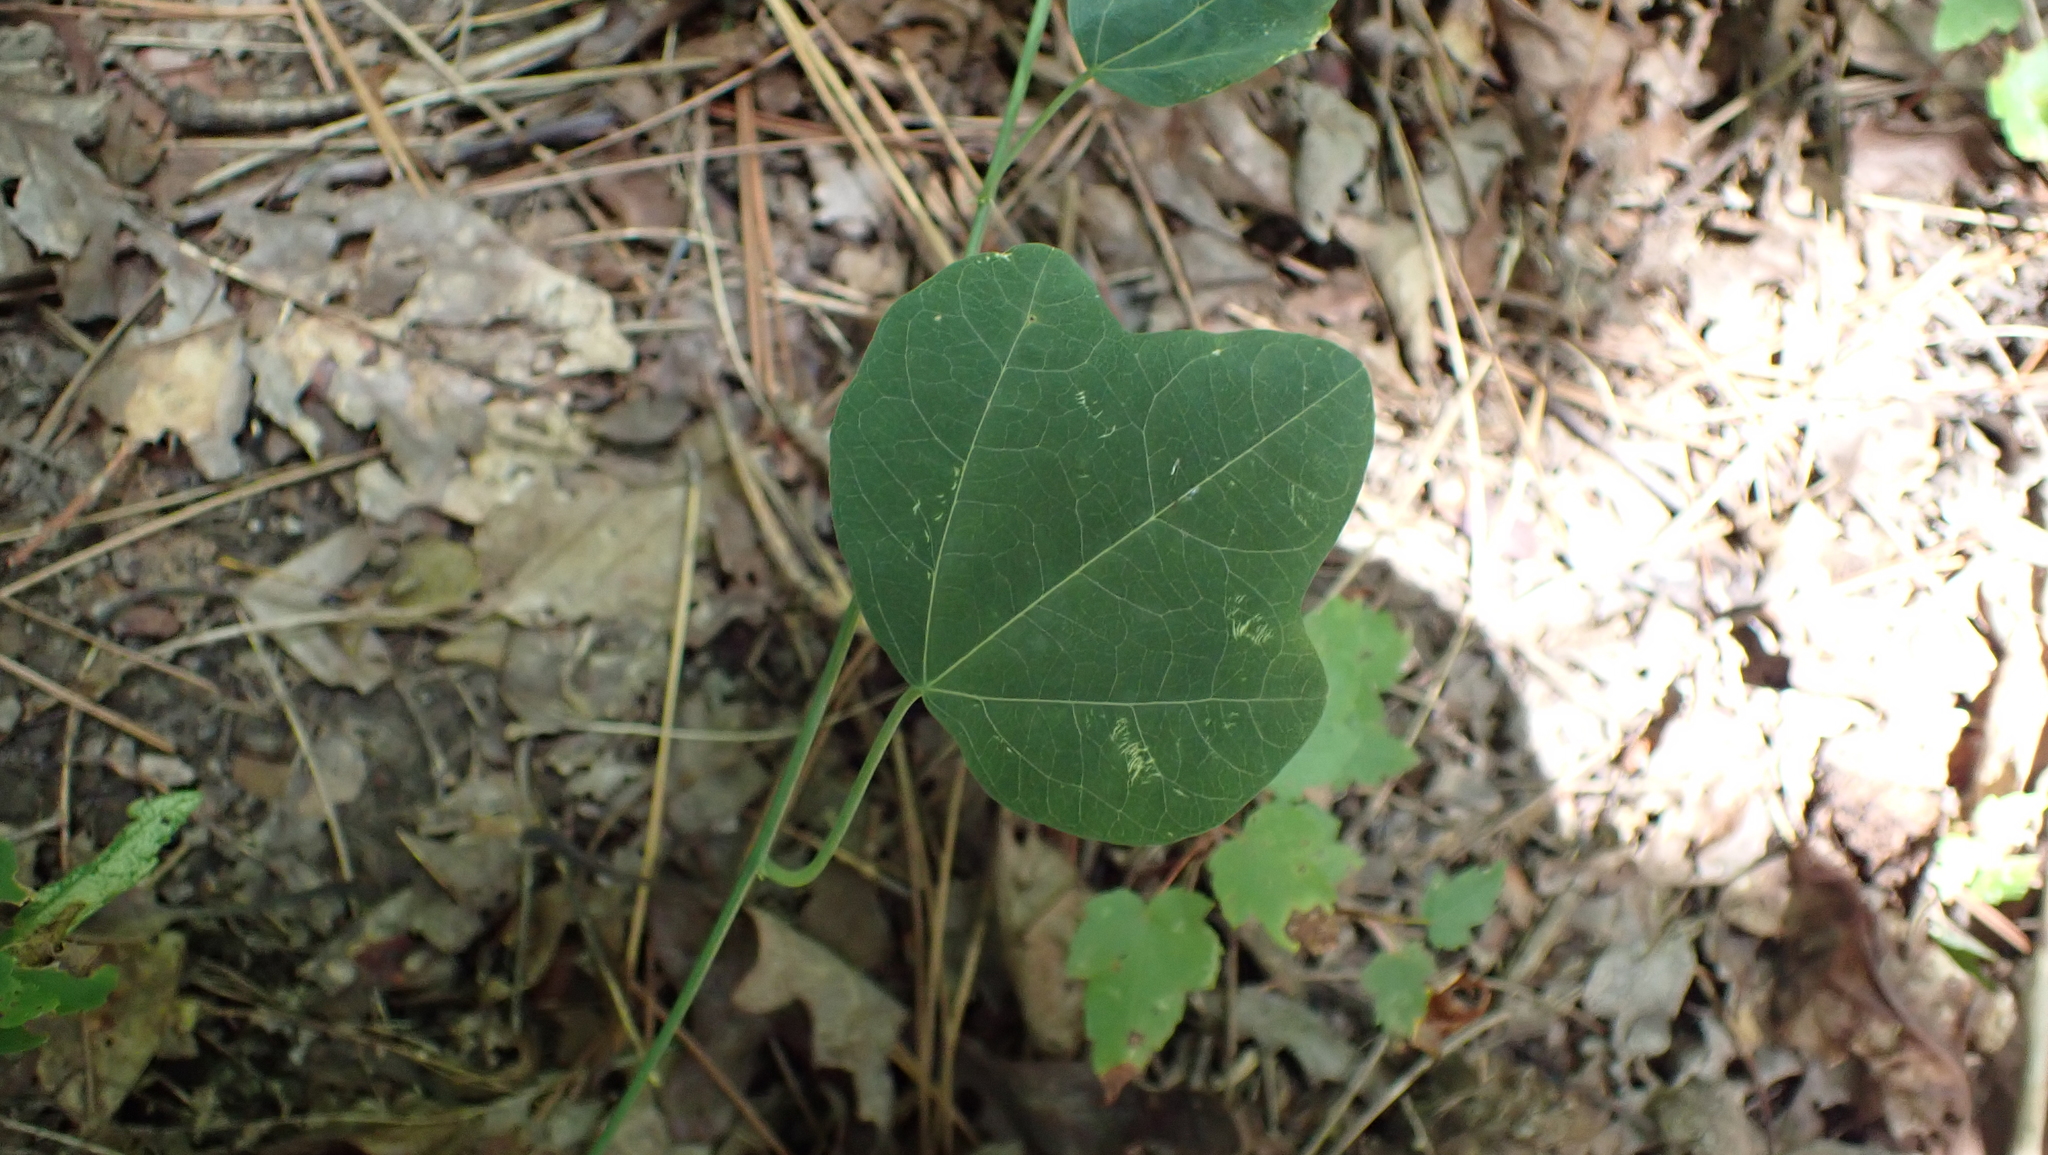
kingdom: Plantae
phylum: Tracheophyta
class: Magnoliopsida
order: Malpighiales
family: Passifloraceae
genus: Passiflora
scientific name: Passiflora lutea
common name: Yellow passionflower
